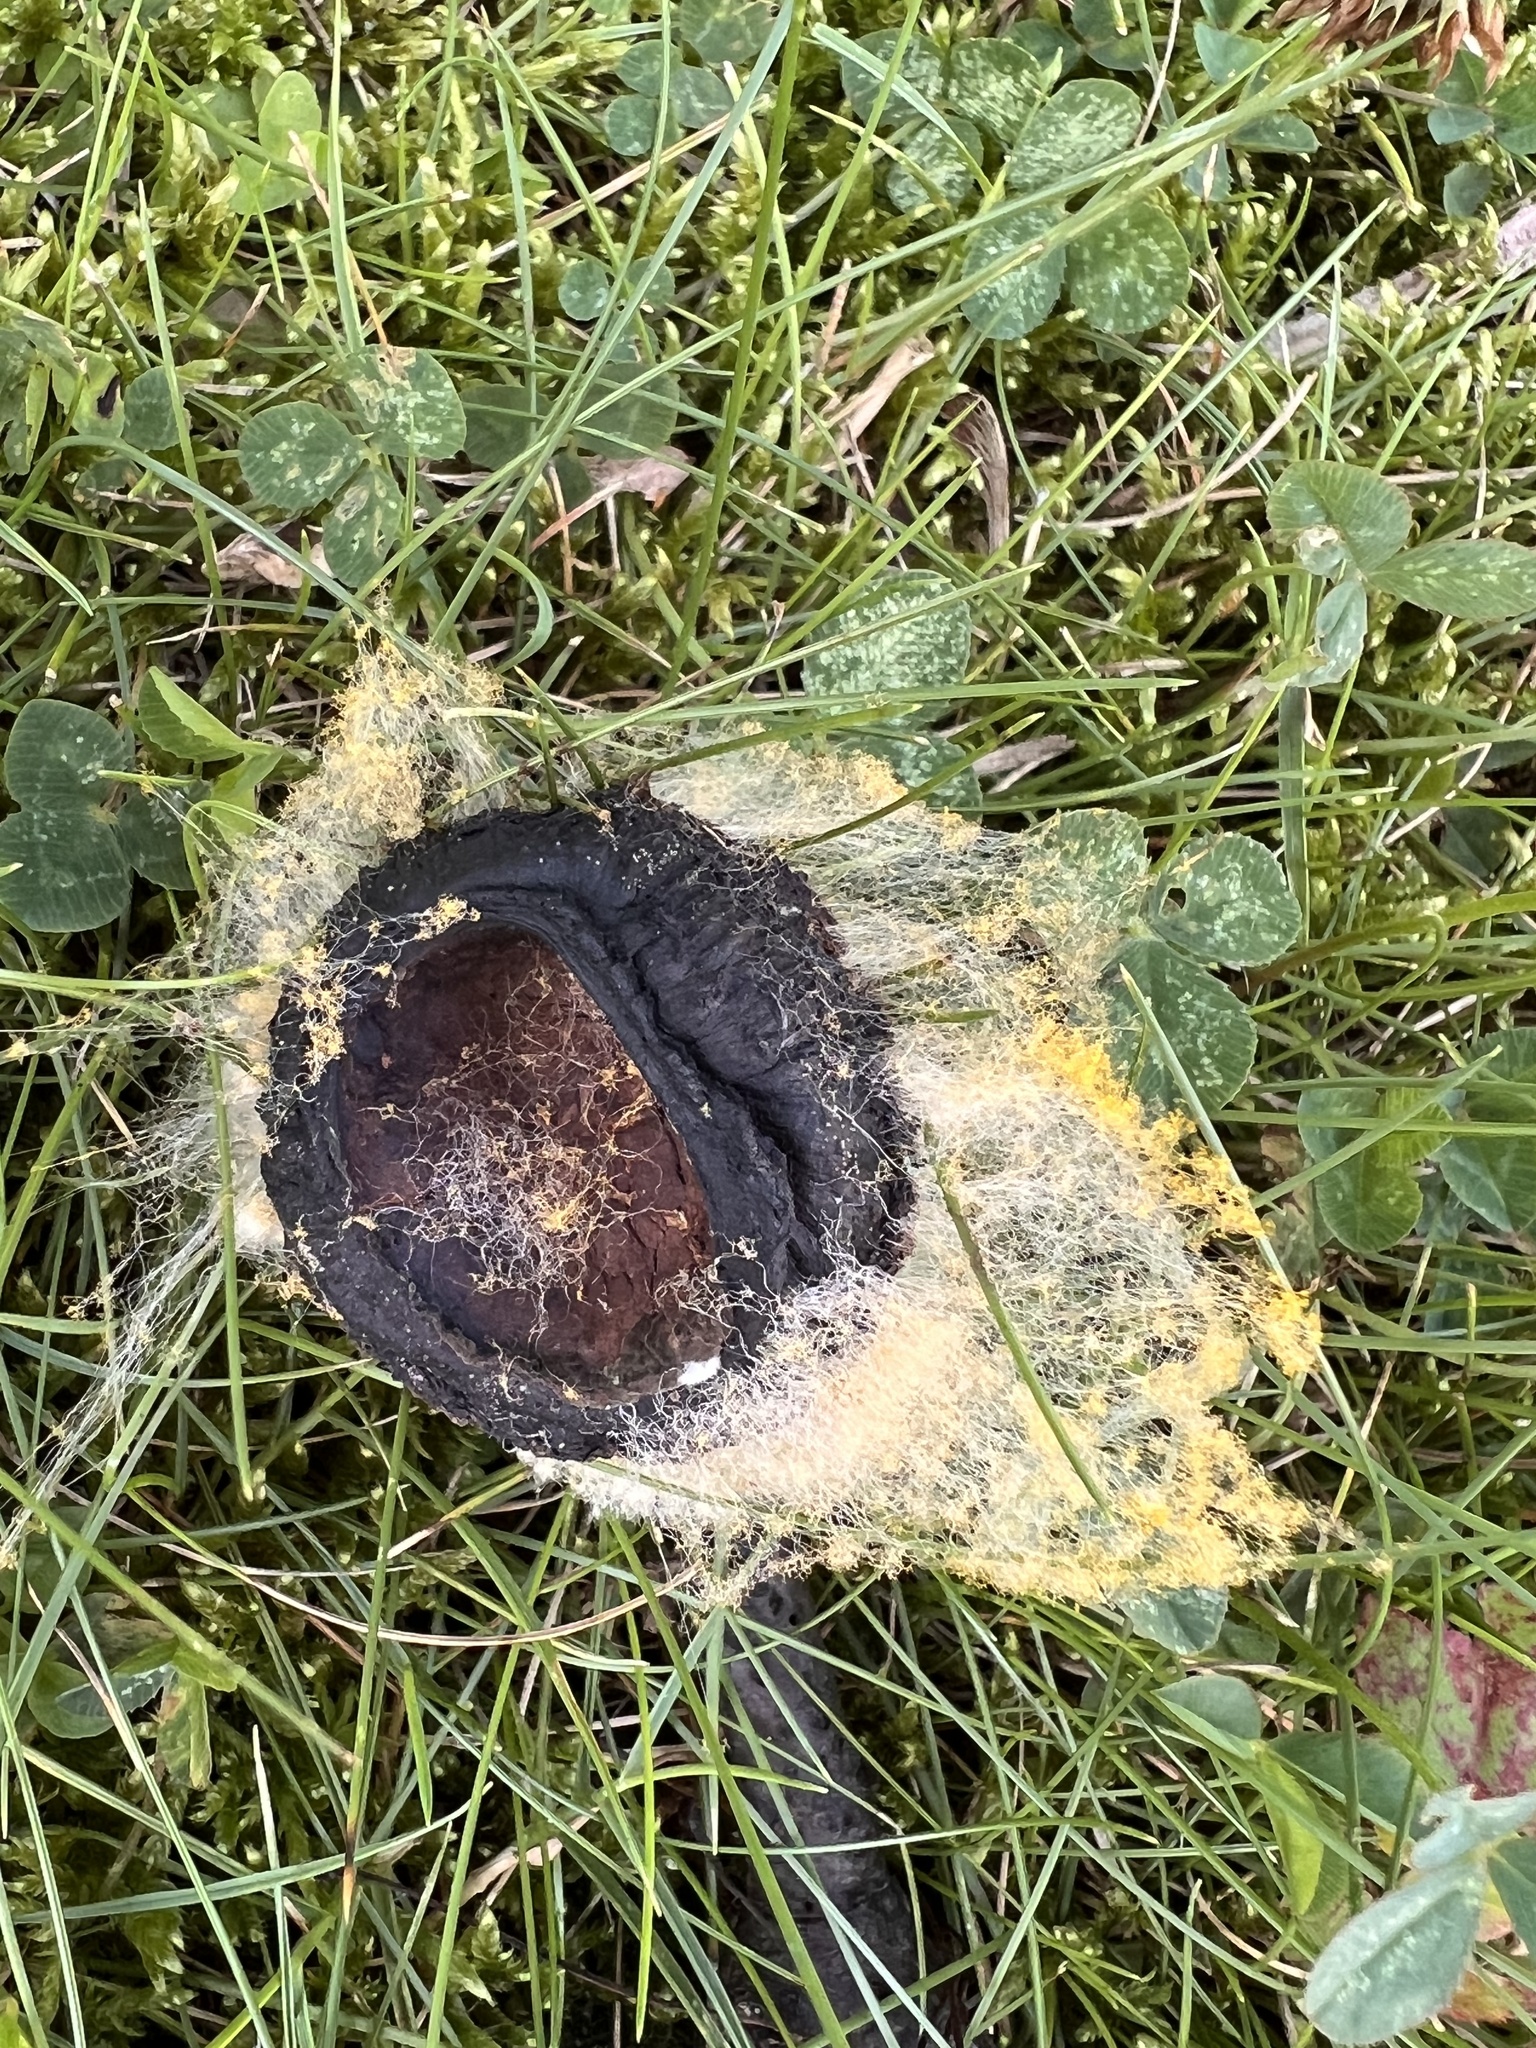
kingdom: Fungi
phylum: Mucoromycota
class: Mucoromycetes
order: Mucorales
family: Rhizopodaceae
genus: Syzygites
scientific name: Syzygites megalocarpus
